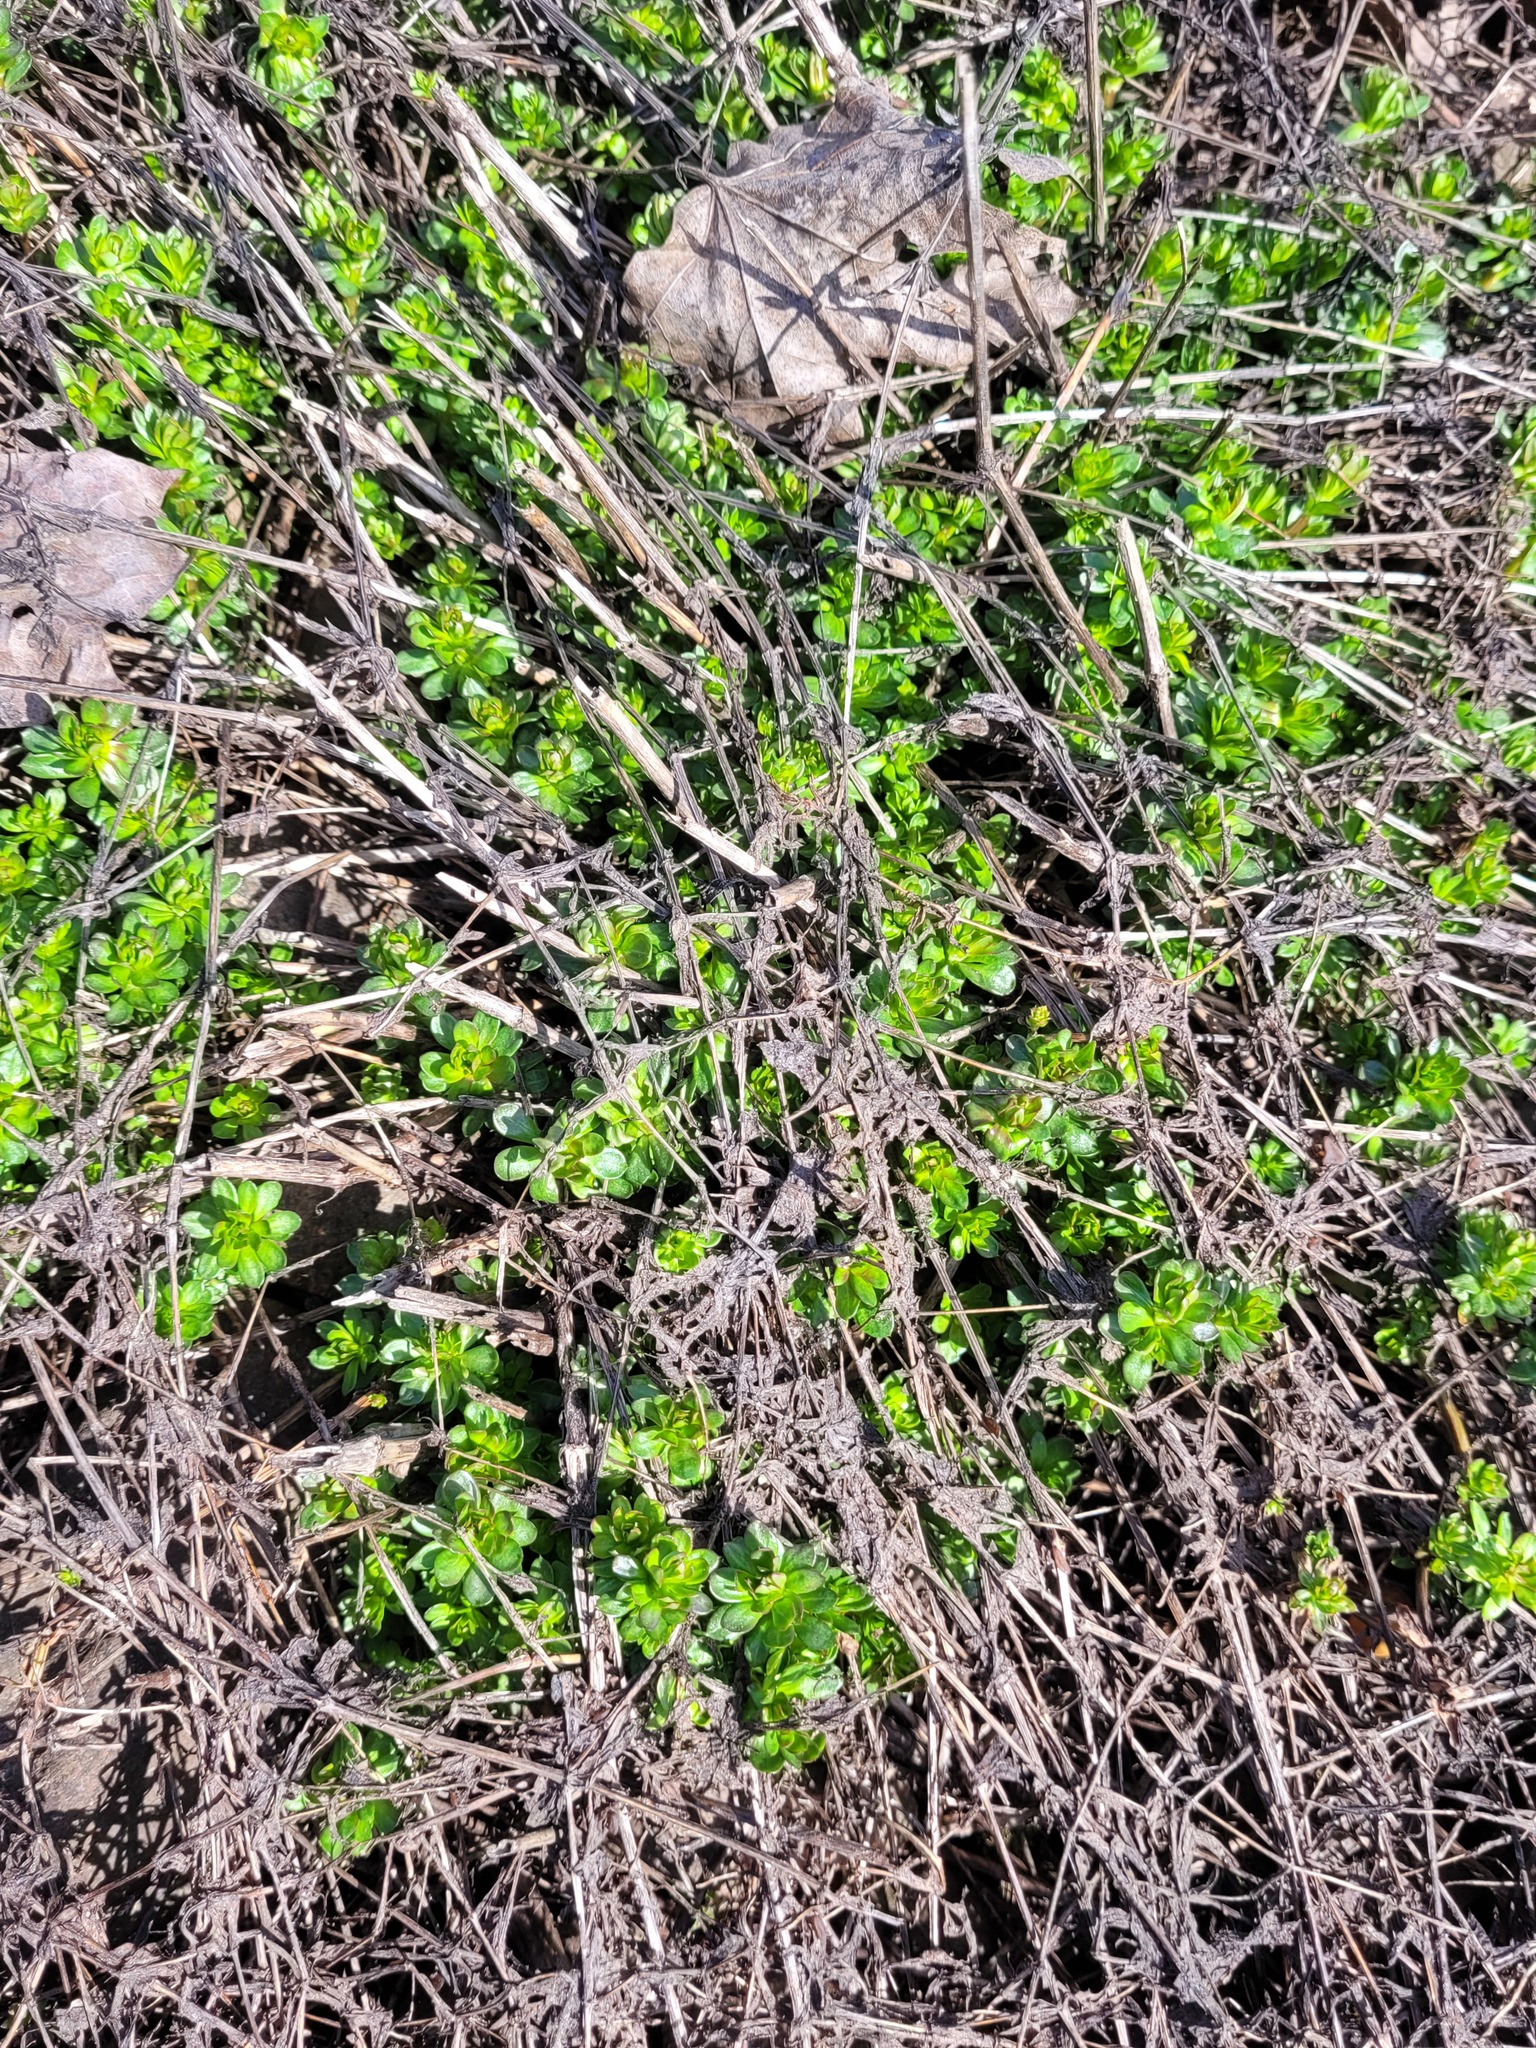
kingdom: Plantae
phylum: Tracheophyta
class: Magnoliopsida
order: Gentianales
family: Rubiaceae
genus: Galium
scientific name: Galium mollugo
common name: Hedge bedstraw
